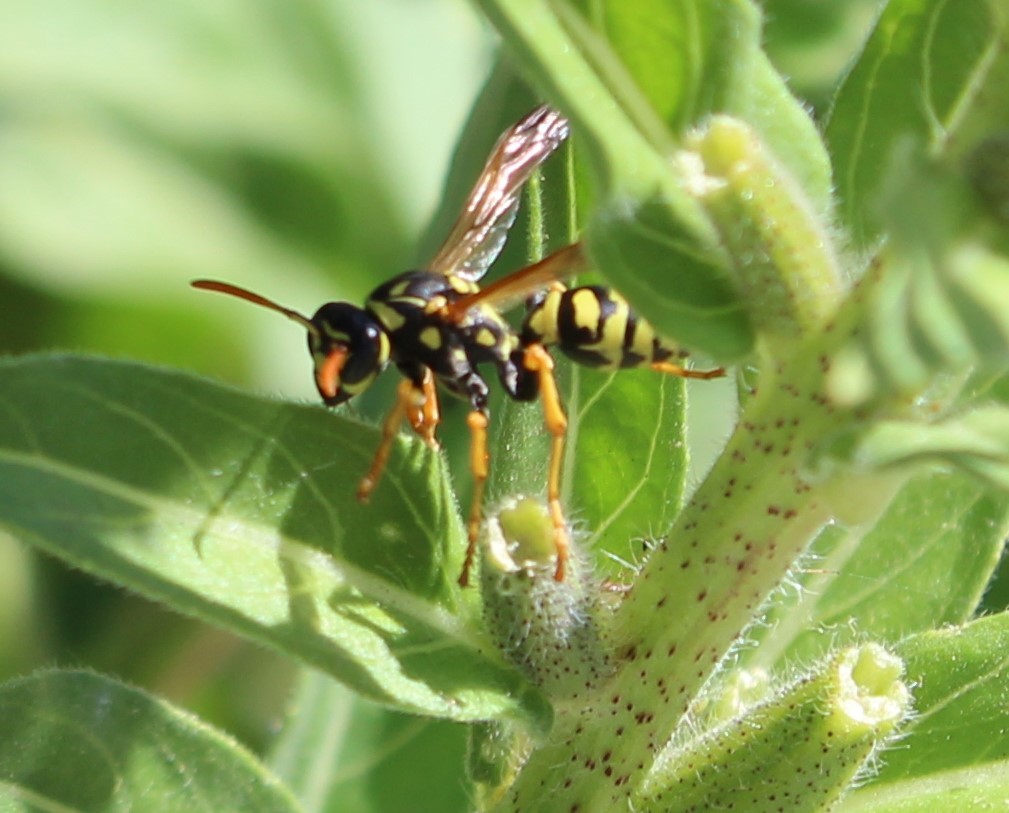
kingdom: Animalia
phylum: Arthropoda
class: Insecta
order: Hymenoptera
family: Eumenidae
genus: Polistes
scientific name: Polistes dominula
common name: Paper wasp
